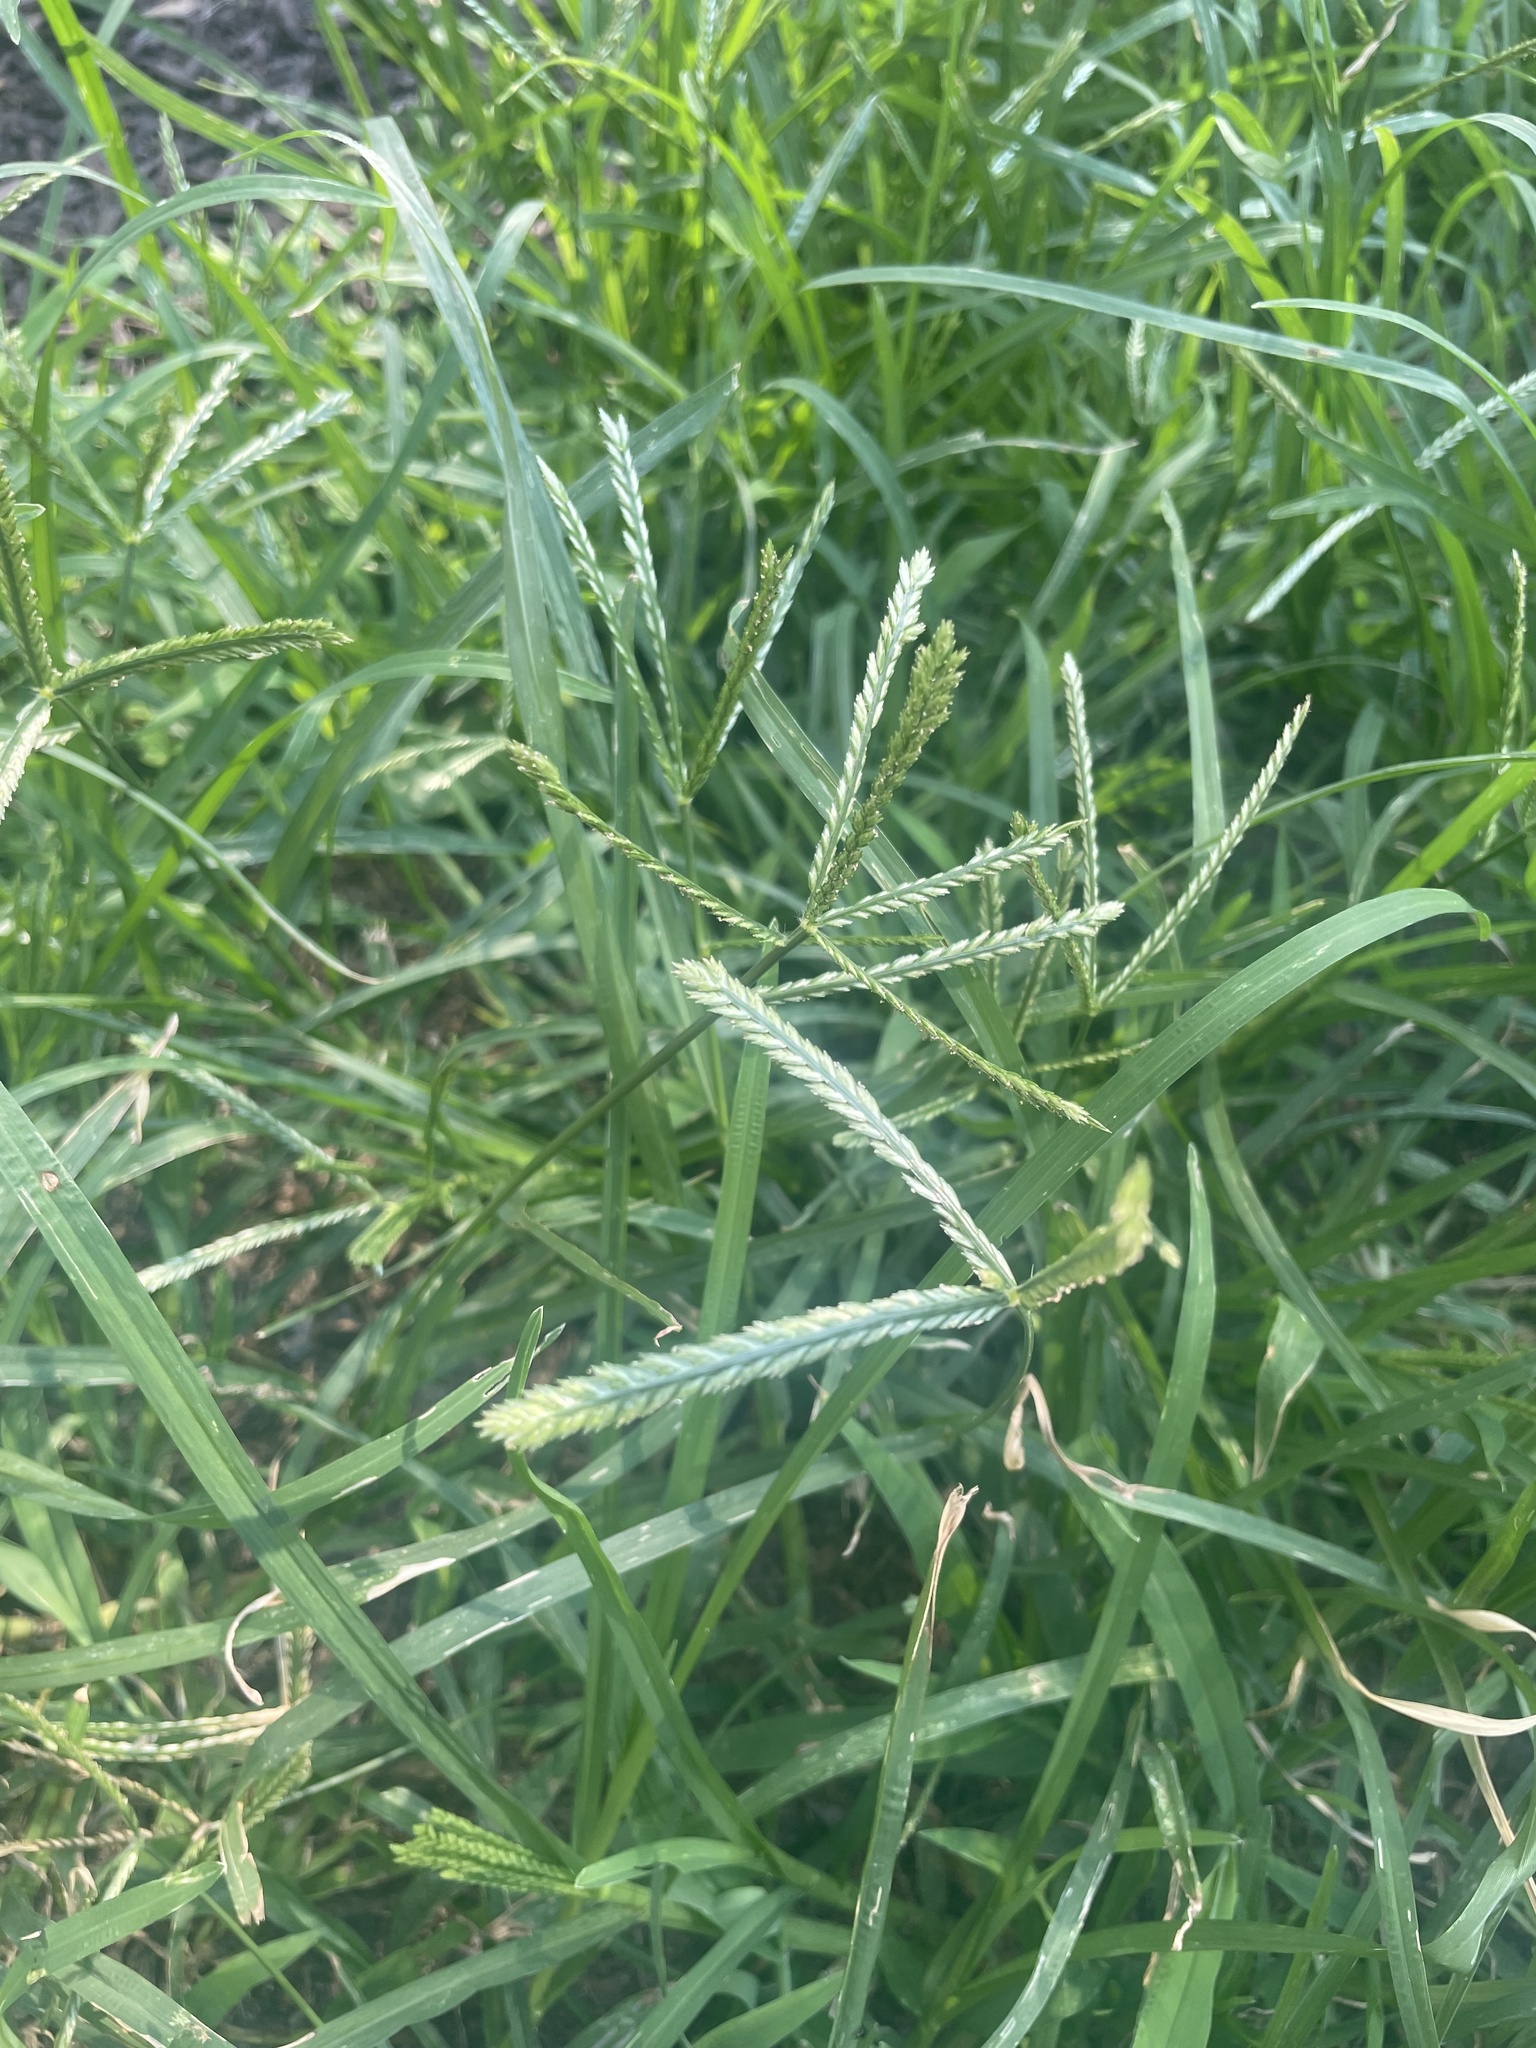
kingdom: Plantae
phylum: Tracheophyta
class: Liliopsida
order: Poales
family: Poaceae
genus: Eleusine
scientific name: Eleusine indica
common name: Yard-grass
